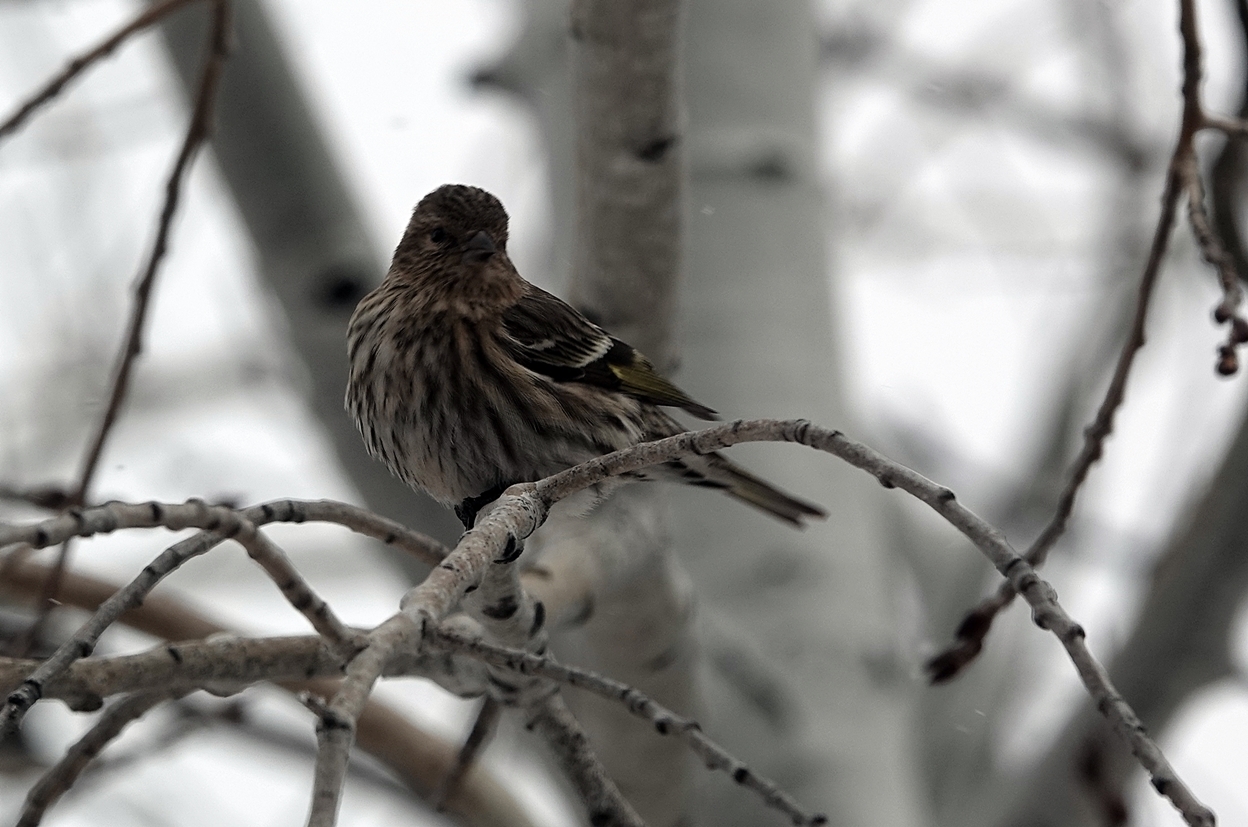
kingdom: Animalia
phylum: Chordata
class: Aves
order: Passeriformes
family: Fringillidae
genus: Spinus
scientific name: Spinus pinus
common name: Pine siskin
